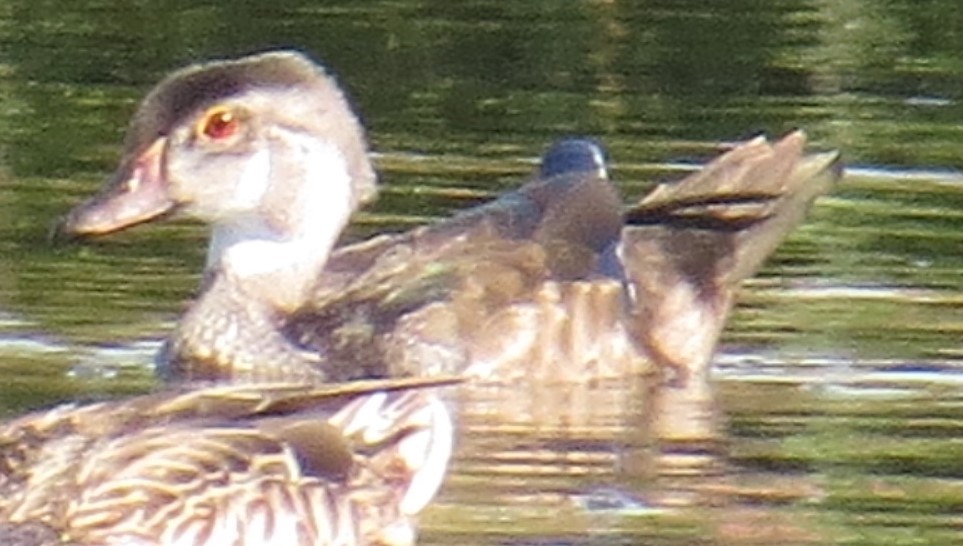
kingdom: Animalia
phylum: Chordata
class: Aves
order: Anseriformes
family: Anatidae
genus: Aix
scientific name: Aix sponsa
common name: Wood duck
